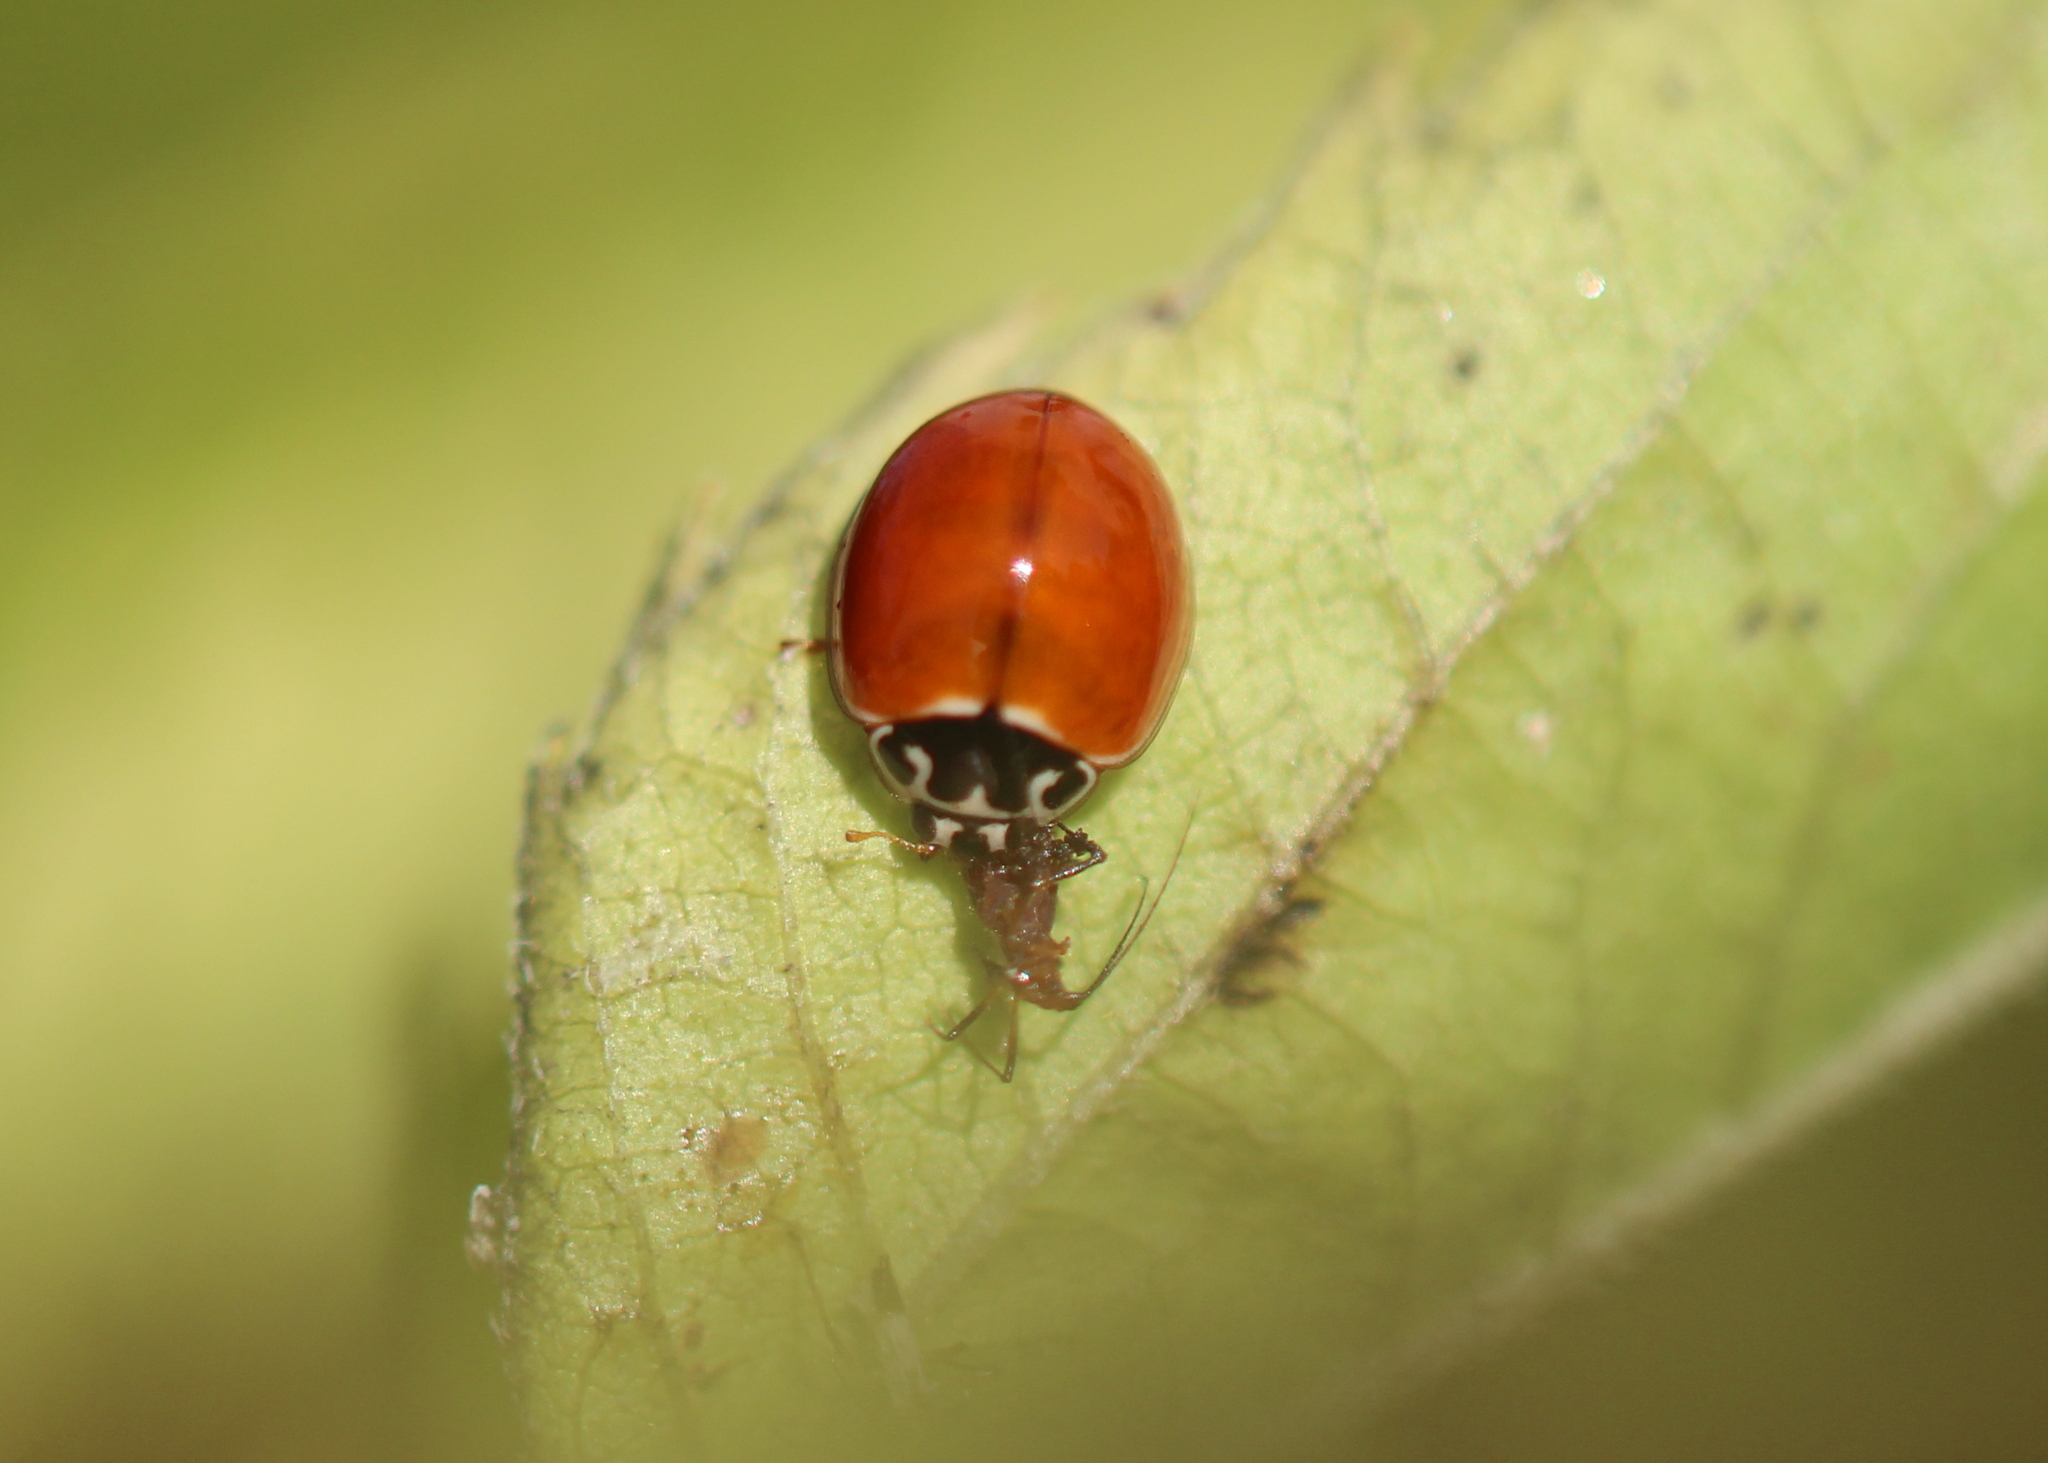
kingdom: Animalia
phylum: Arthropoda
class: Insecta
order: Coleoptera
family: Coccinellidae
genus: Cycloneda
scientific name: Cycloneda munda
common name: Polished lady beetle
